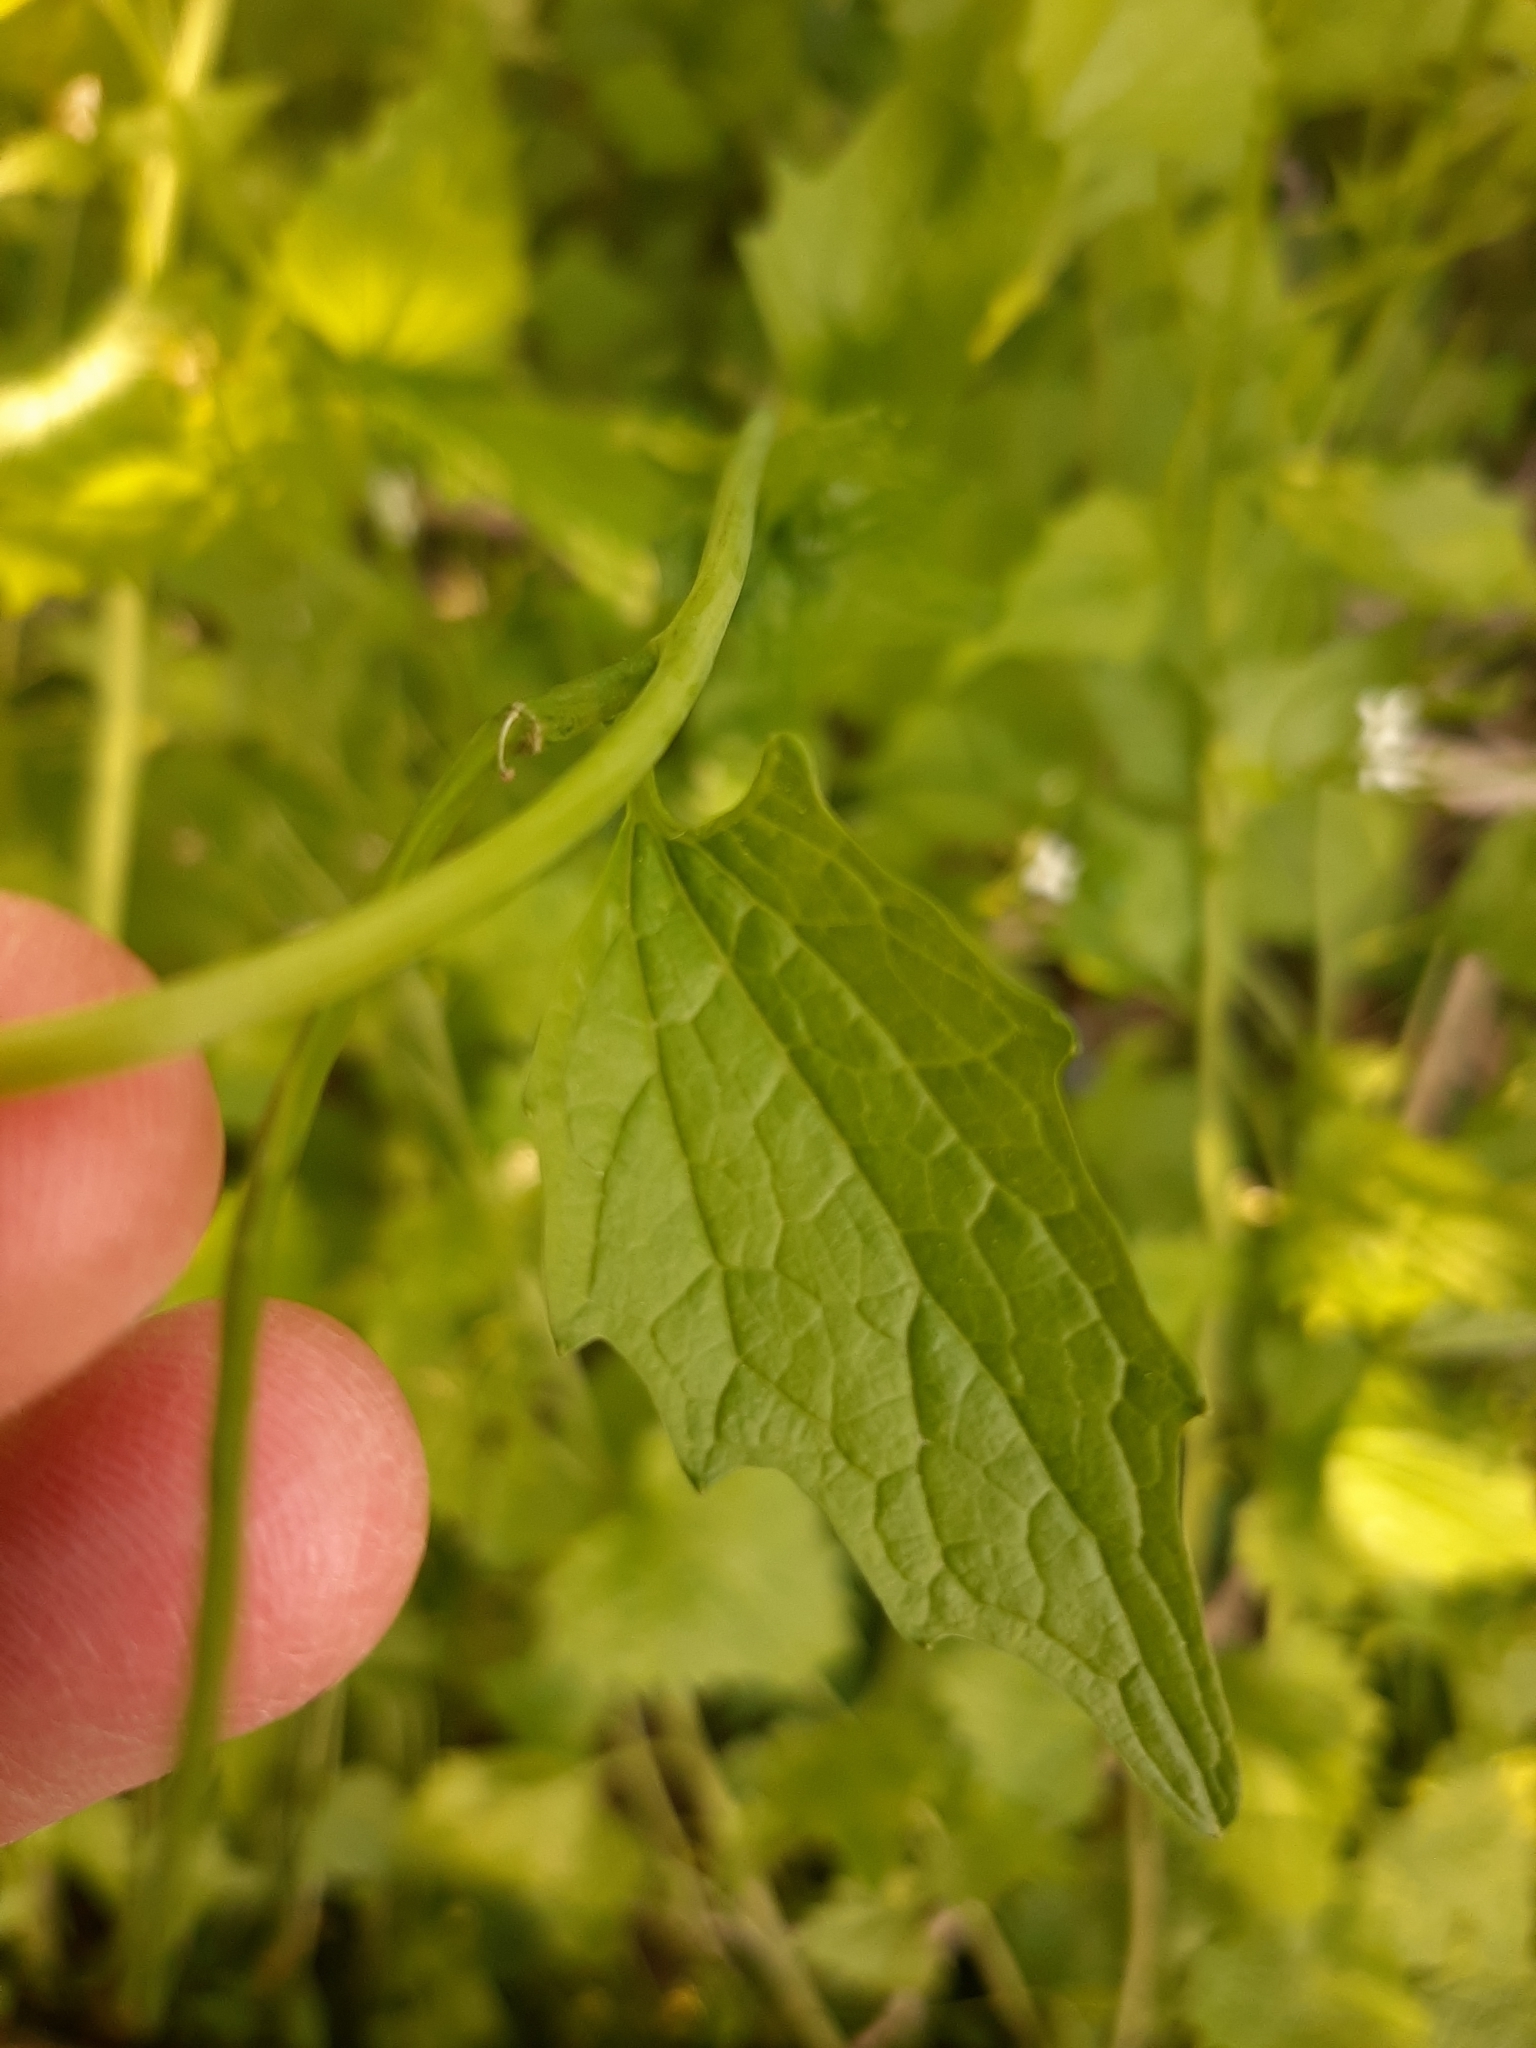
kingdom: Plantae
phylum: Tracheophyta
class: Magnoliopsida
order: Brassicales
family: Brassicaceae
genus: Alliaria
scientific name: Alliaria petiolata
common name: Garlic mustard
